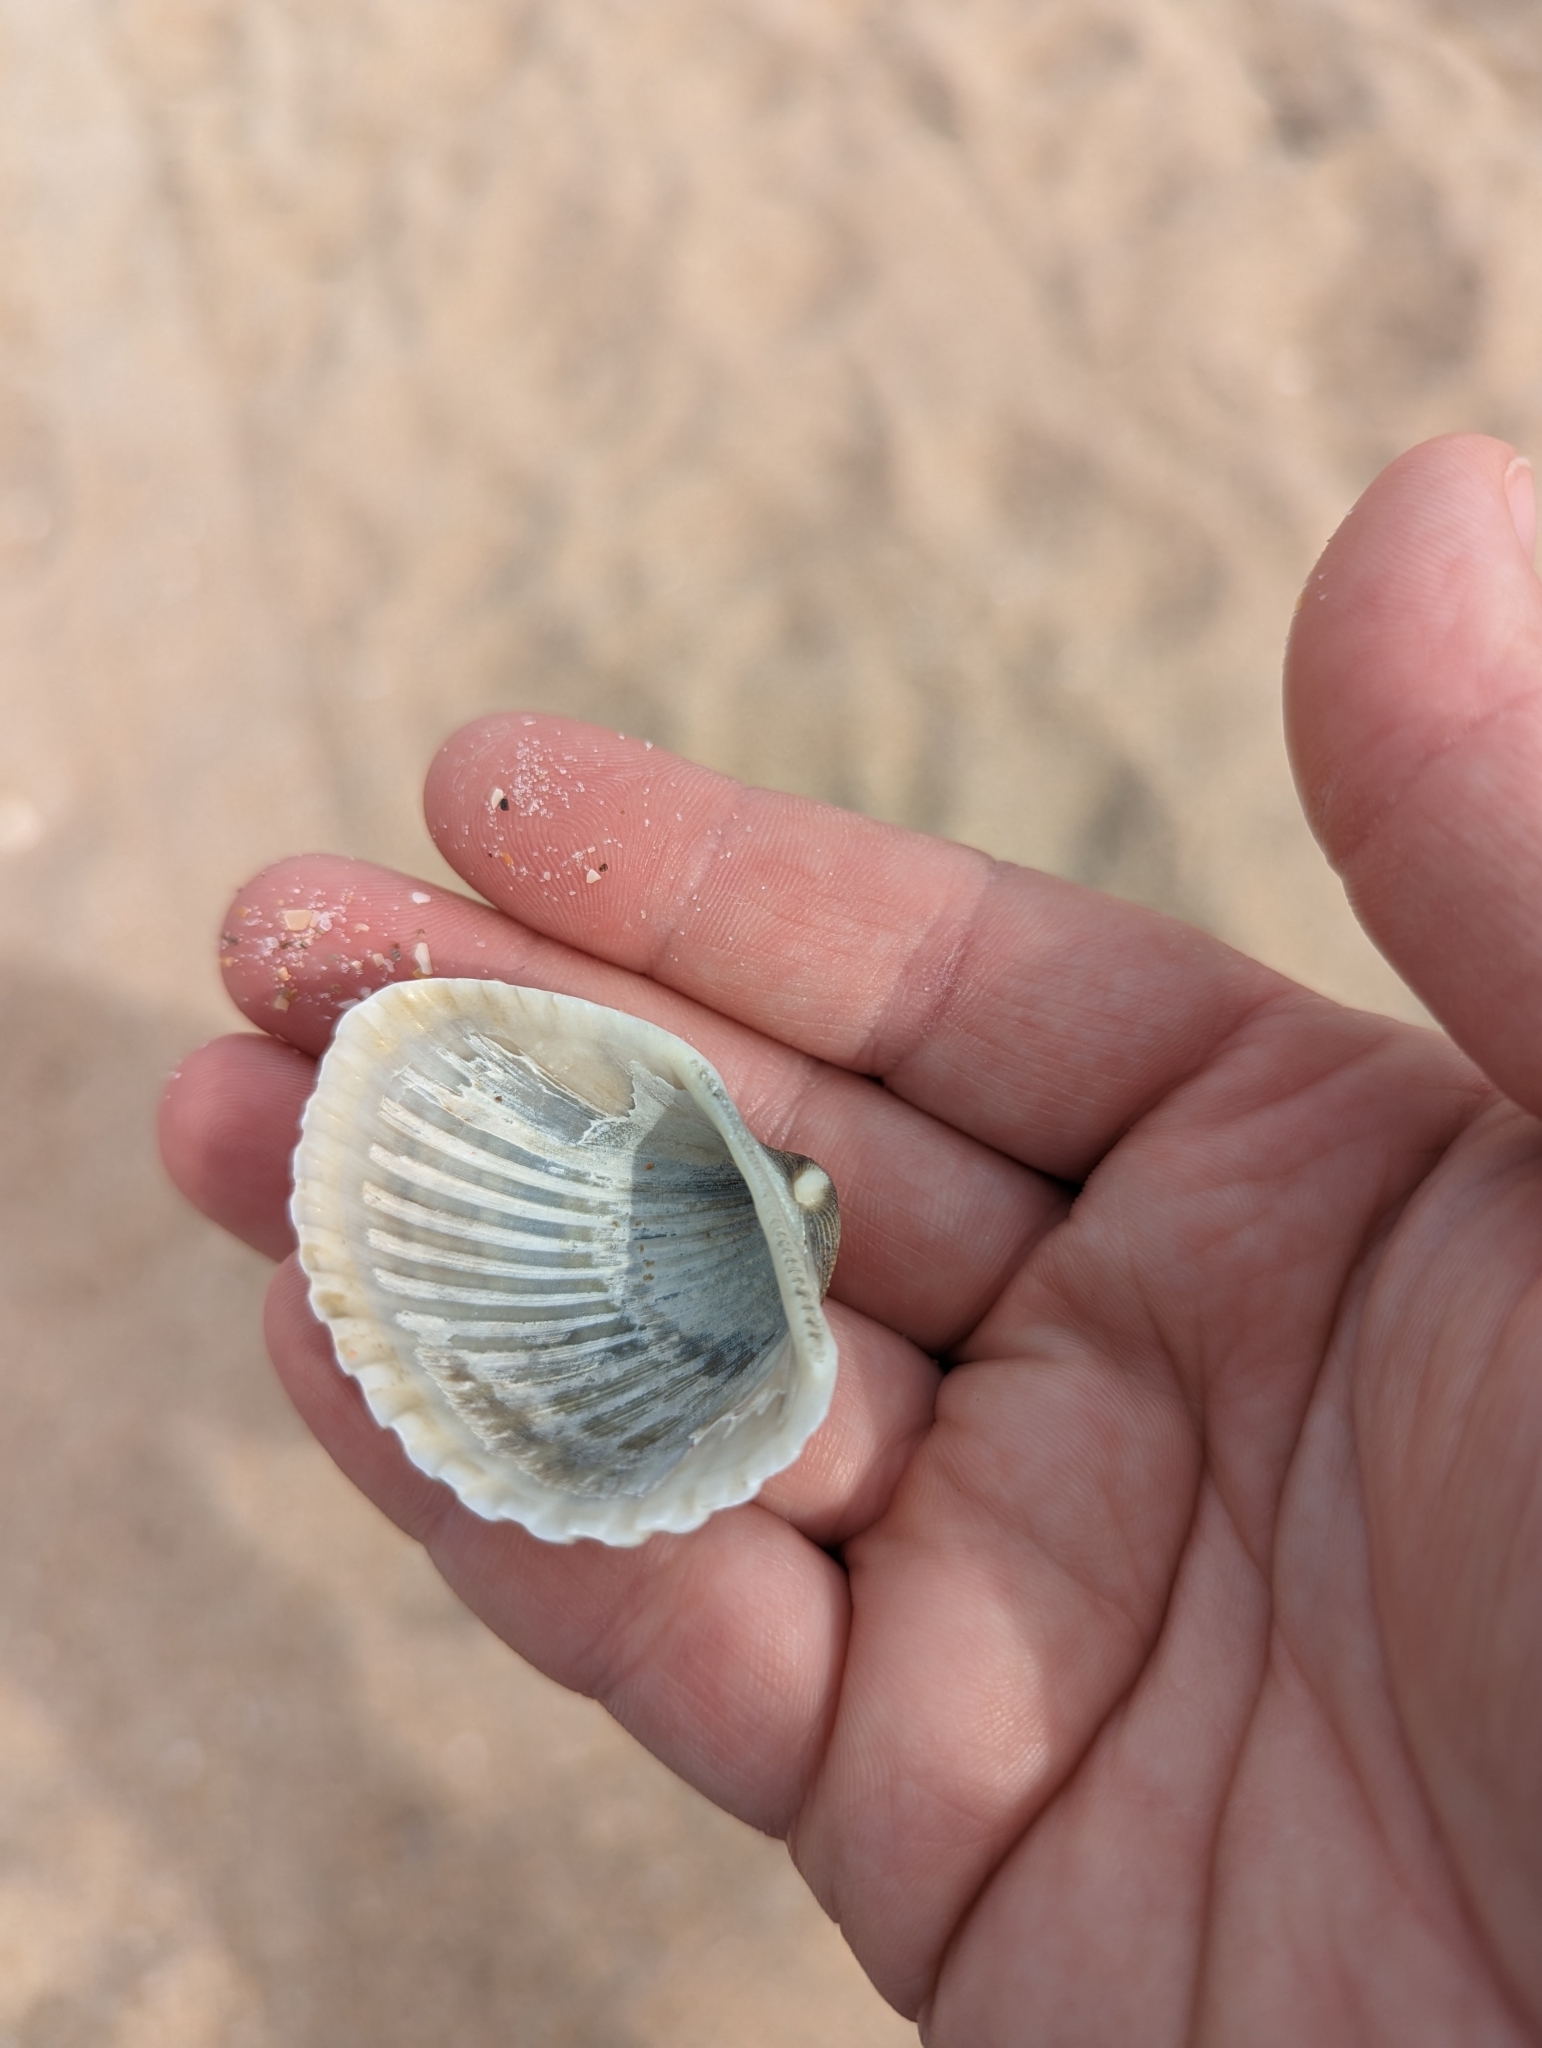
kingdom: Animalia
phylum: Mollusca
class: Bivalvia
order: Arcida
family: Arcidae
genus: Anadara
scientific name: Anadara brasiliana
